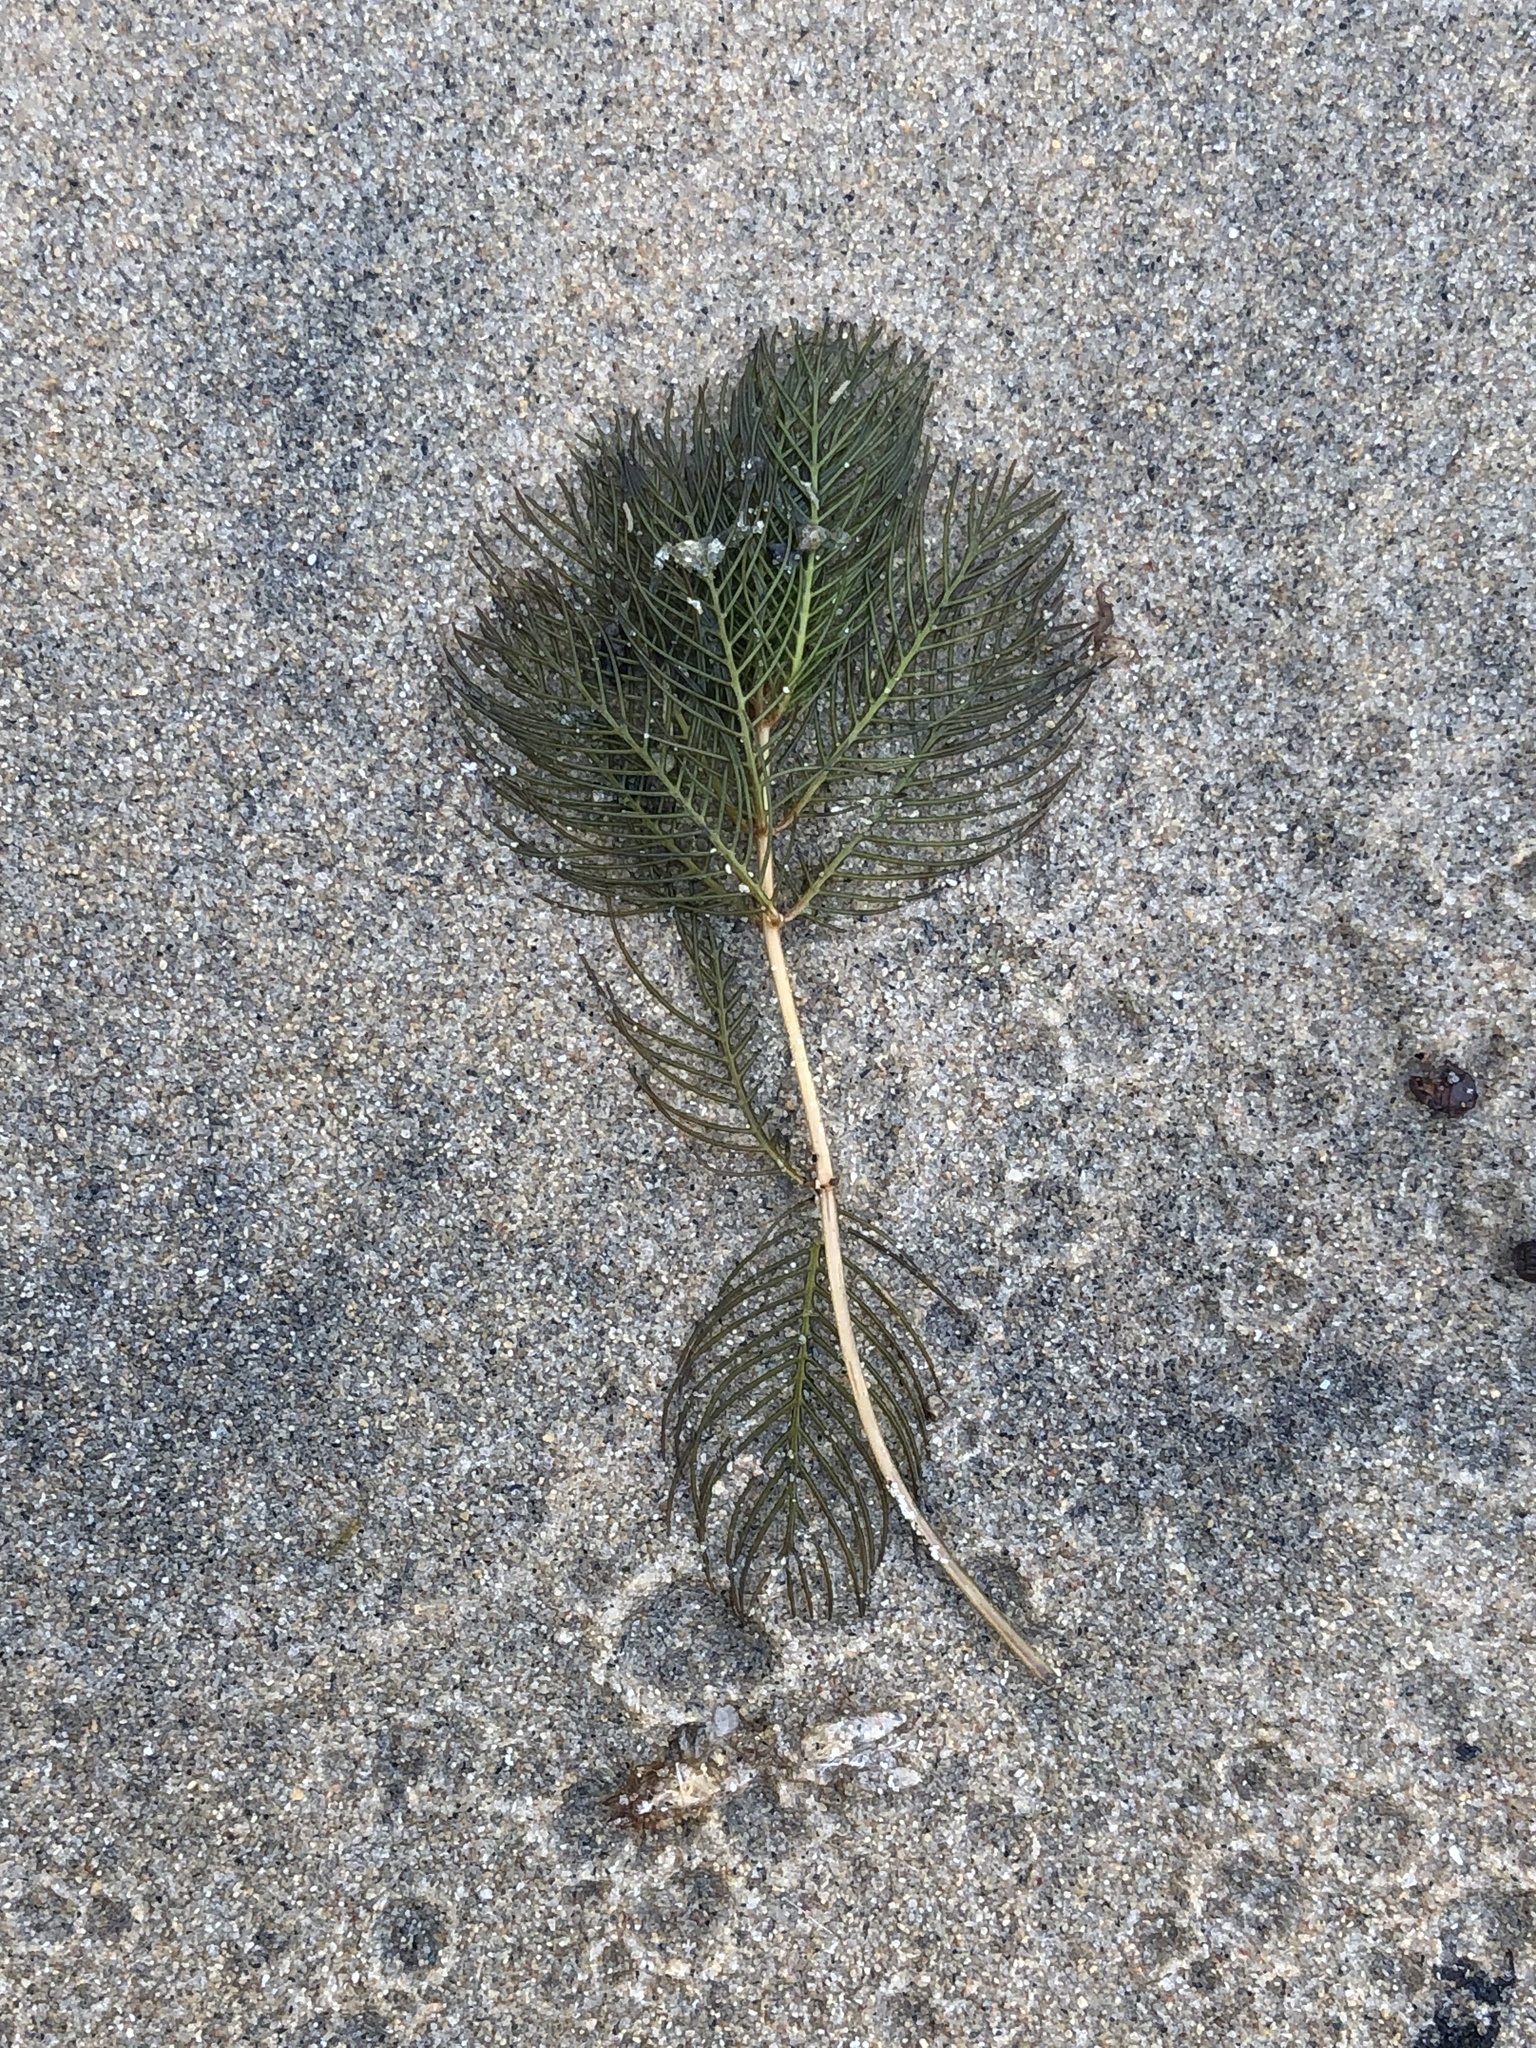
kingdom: Plantae
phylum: Tracheophyta
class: Magnoliopsida
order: Saxifragales
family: Haloragaceae
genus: Myriophyllum
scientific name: Myriophyllum spicatum
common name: Spiked water-milfoil
